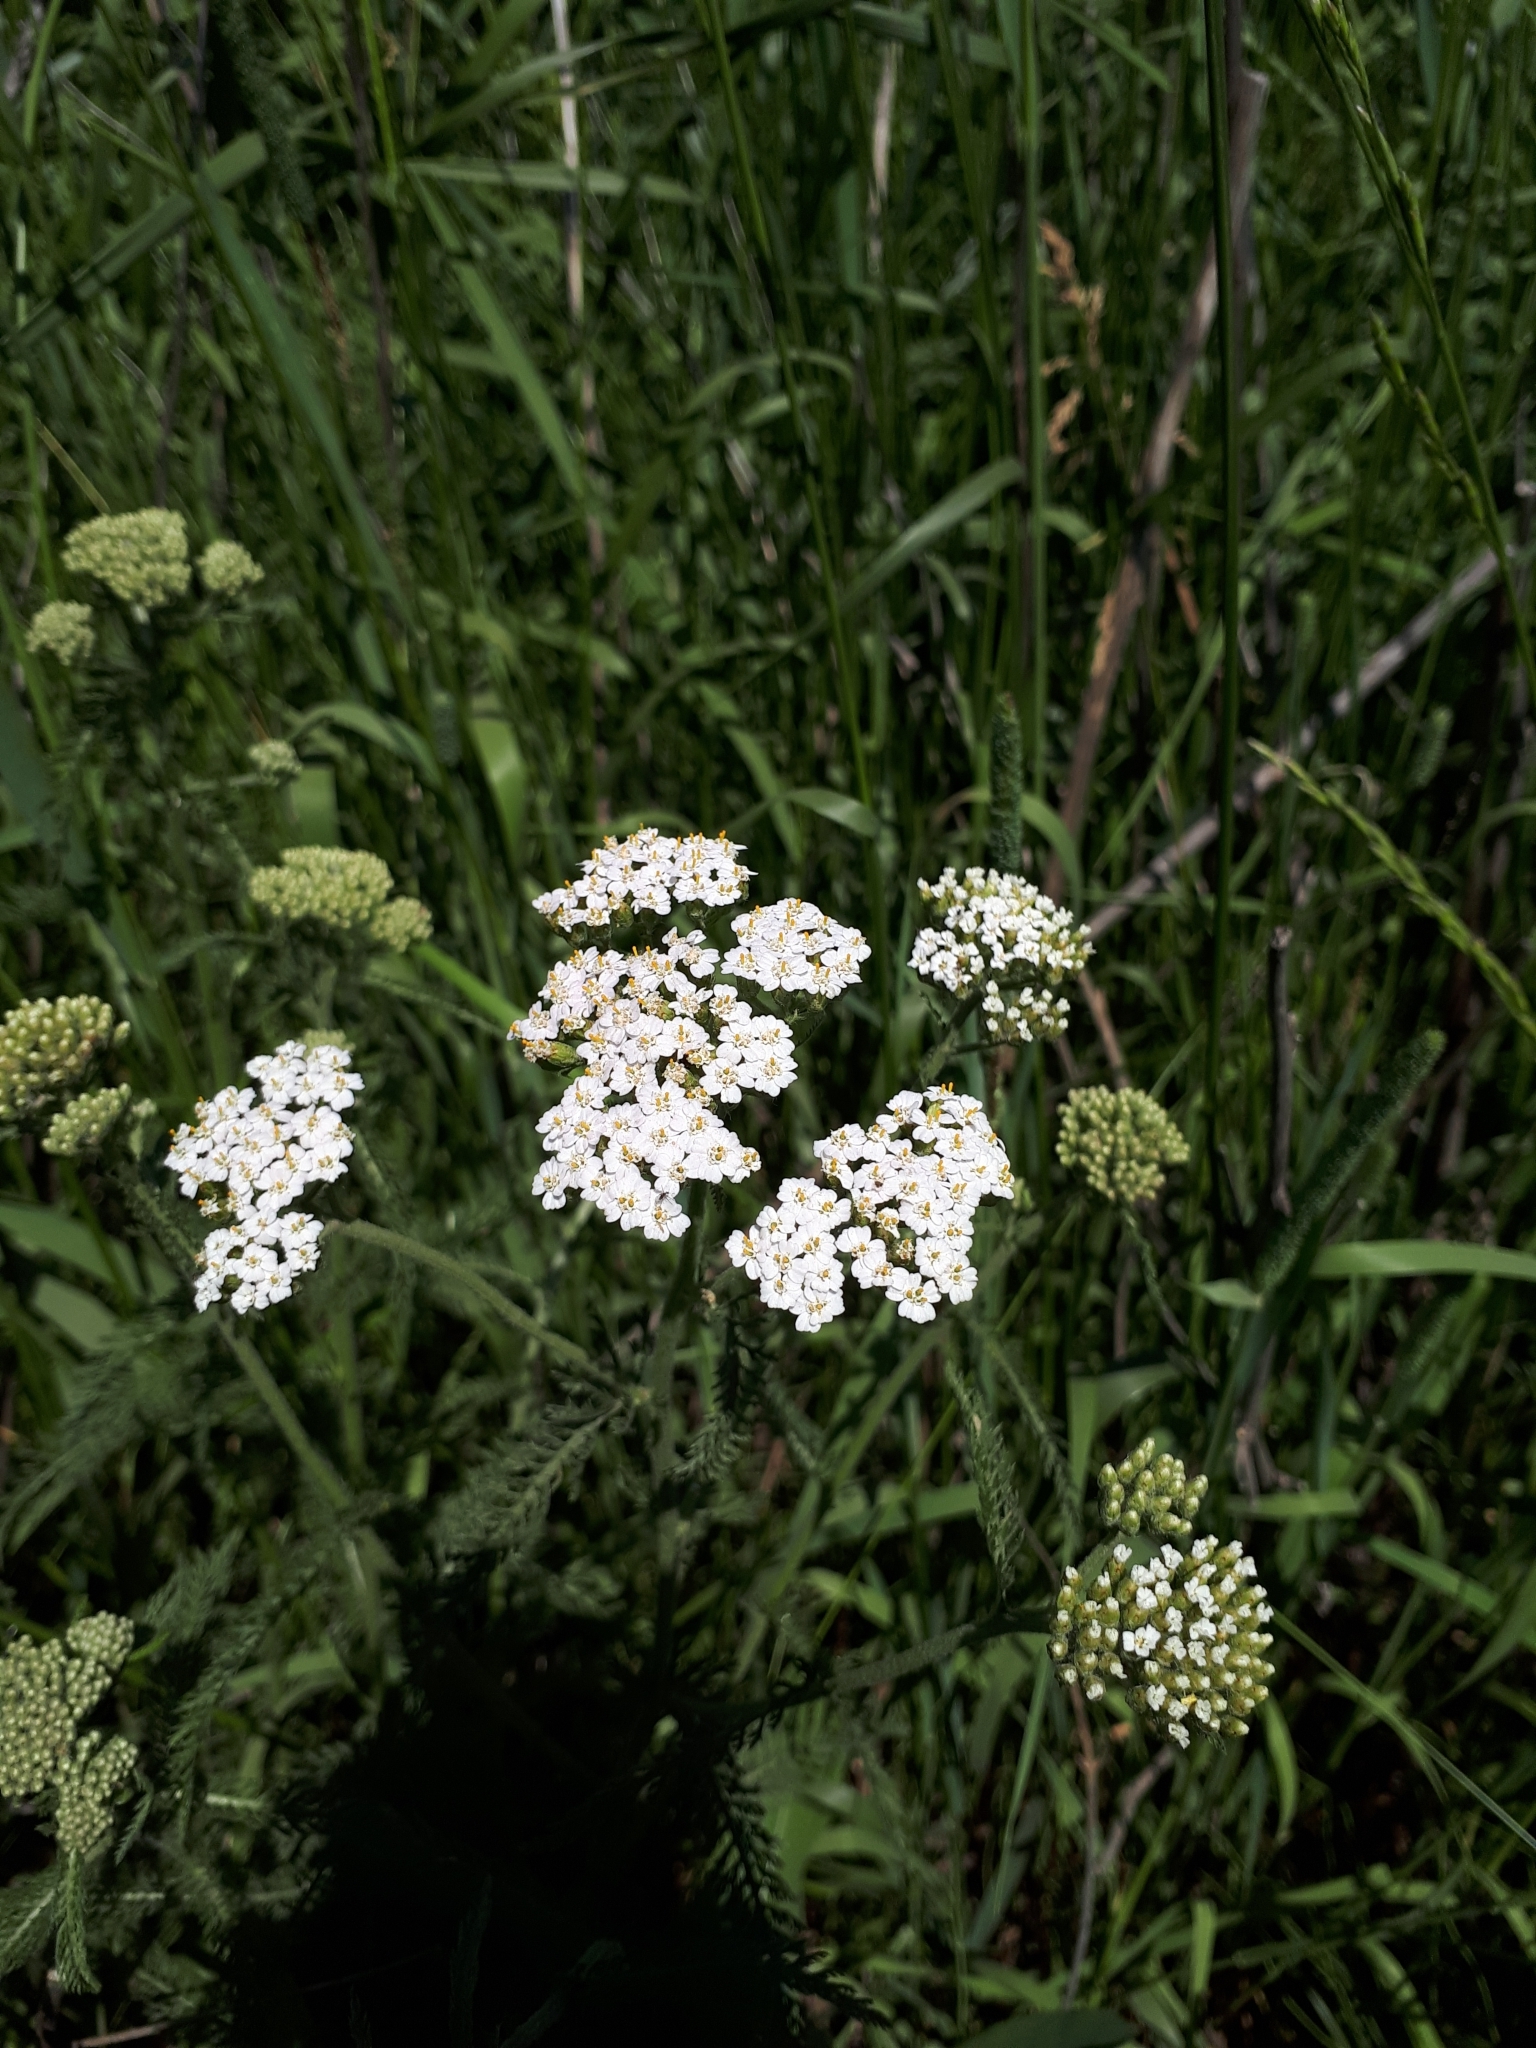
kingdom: Plantae
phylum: Tracheophyta
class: Magnoliopsida
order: Asterales
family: Asteraceae
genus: Achillea
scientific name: Achillea millefolium
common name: Yarrow
